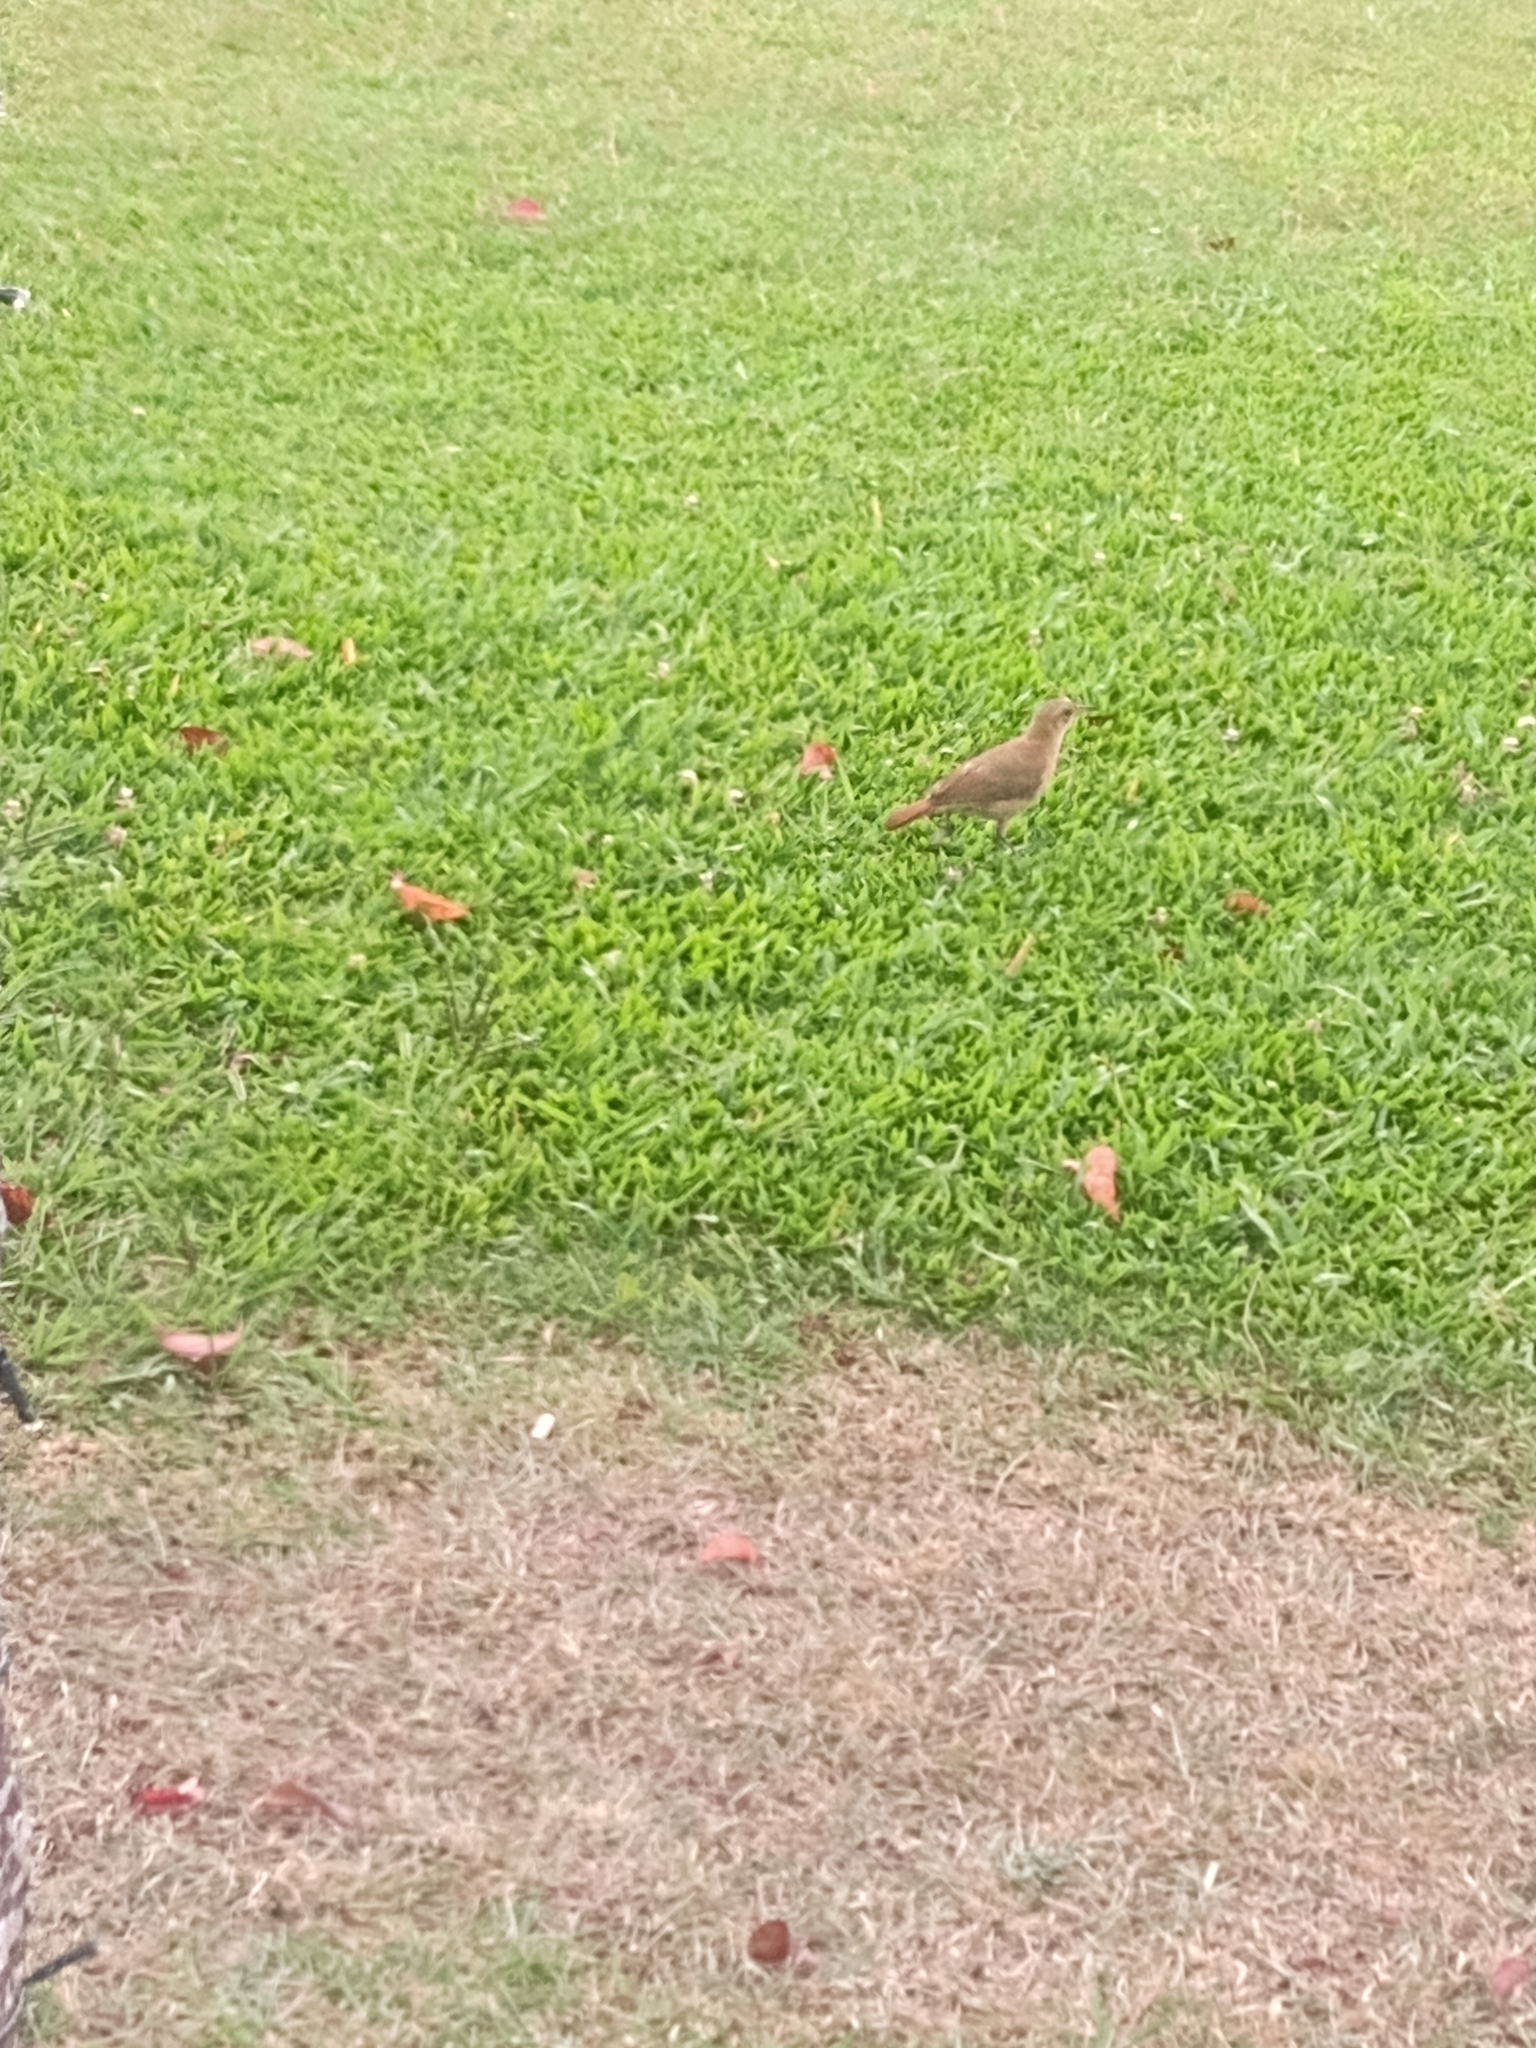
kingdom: Animalia
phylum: Chordata
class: Aves
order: Passeriformes
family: Furnariidae
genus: Furnarius
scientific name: Furnarius rufus
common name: Rufous hornero
